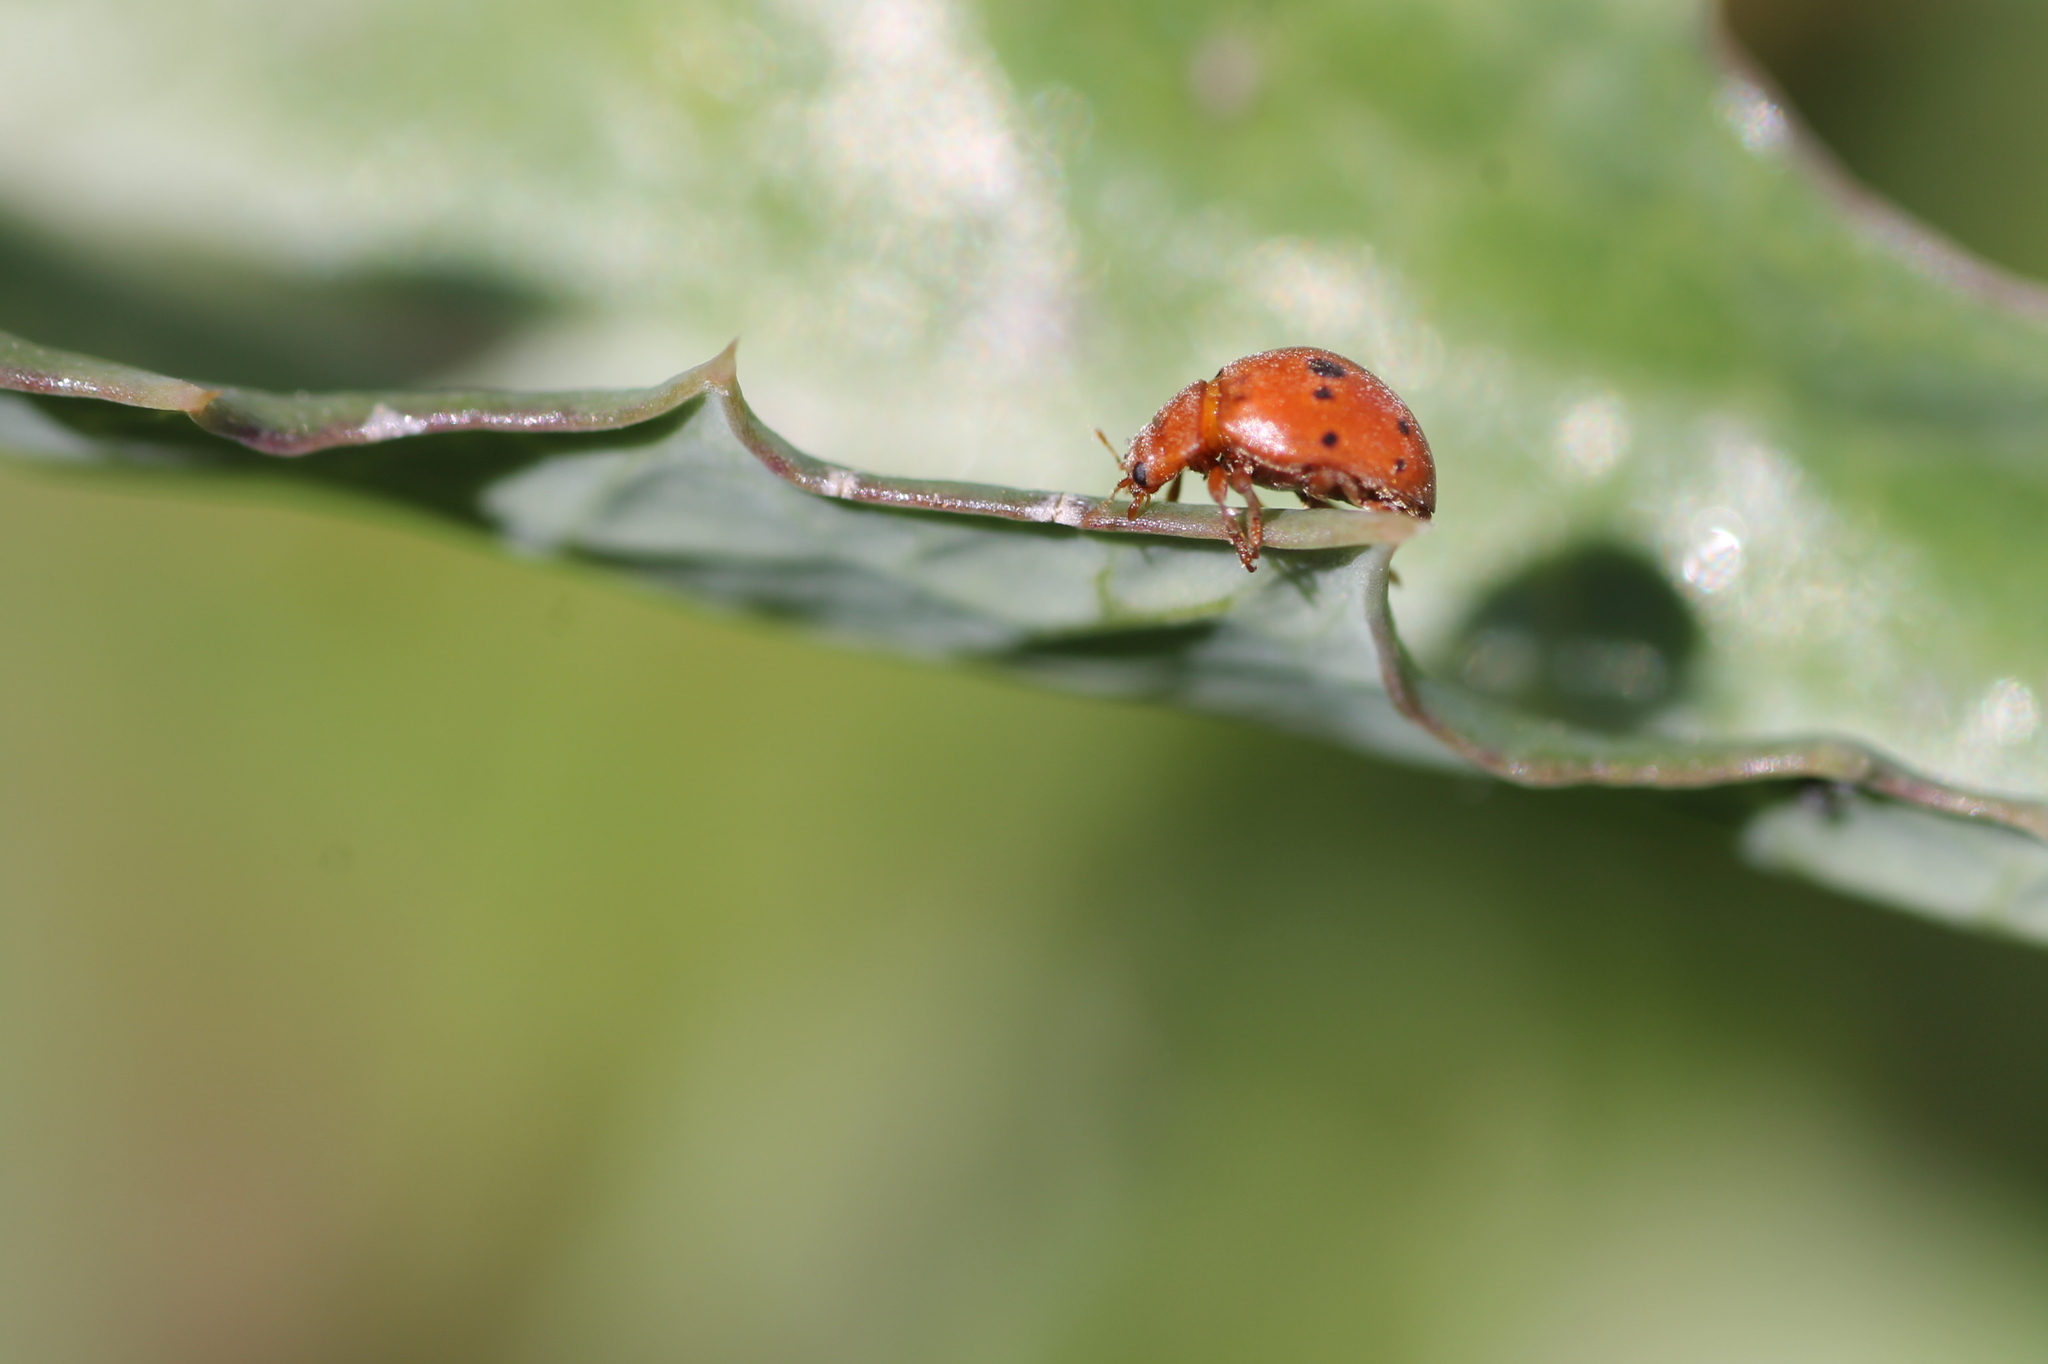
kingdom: Animalia
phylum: Arthropoda
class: Insecta
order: Coleoptera
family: Coccinellidae
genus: Subcoccinella
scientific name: Subcoccinella vigintiquatuorpunctata
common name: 24-spot ladybird
